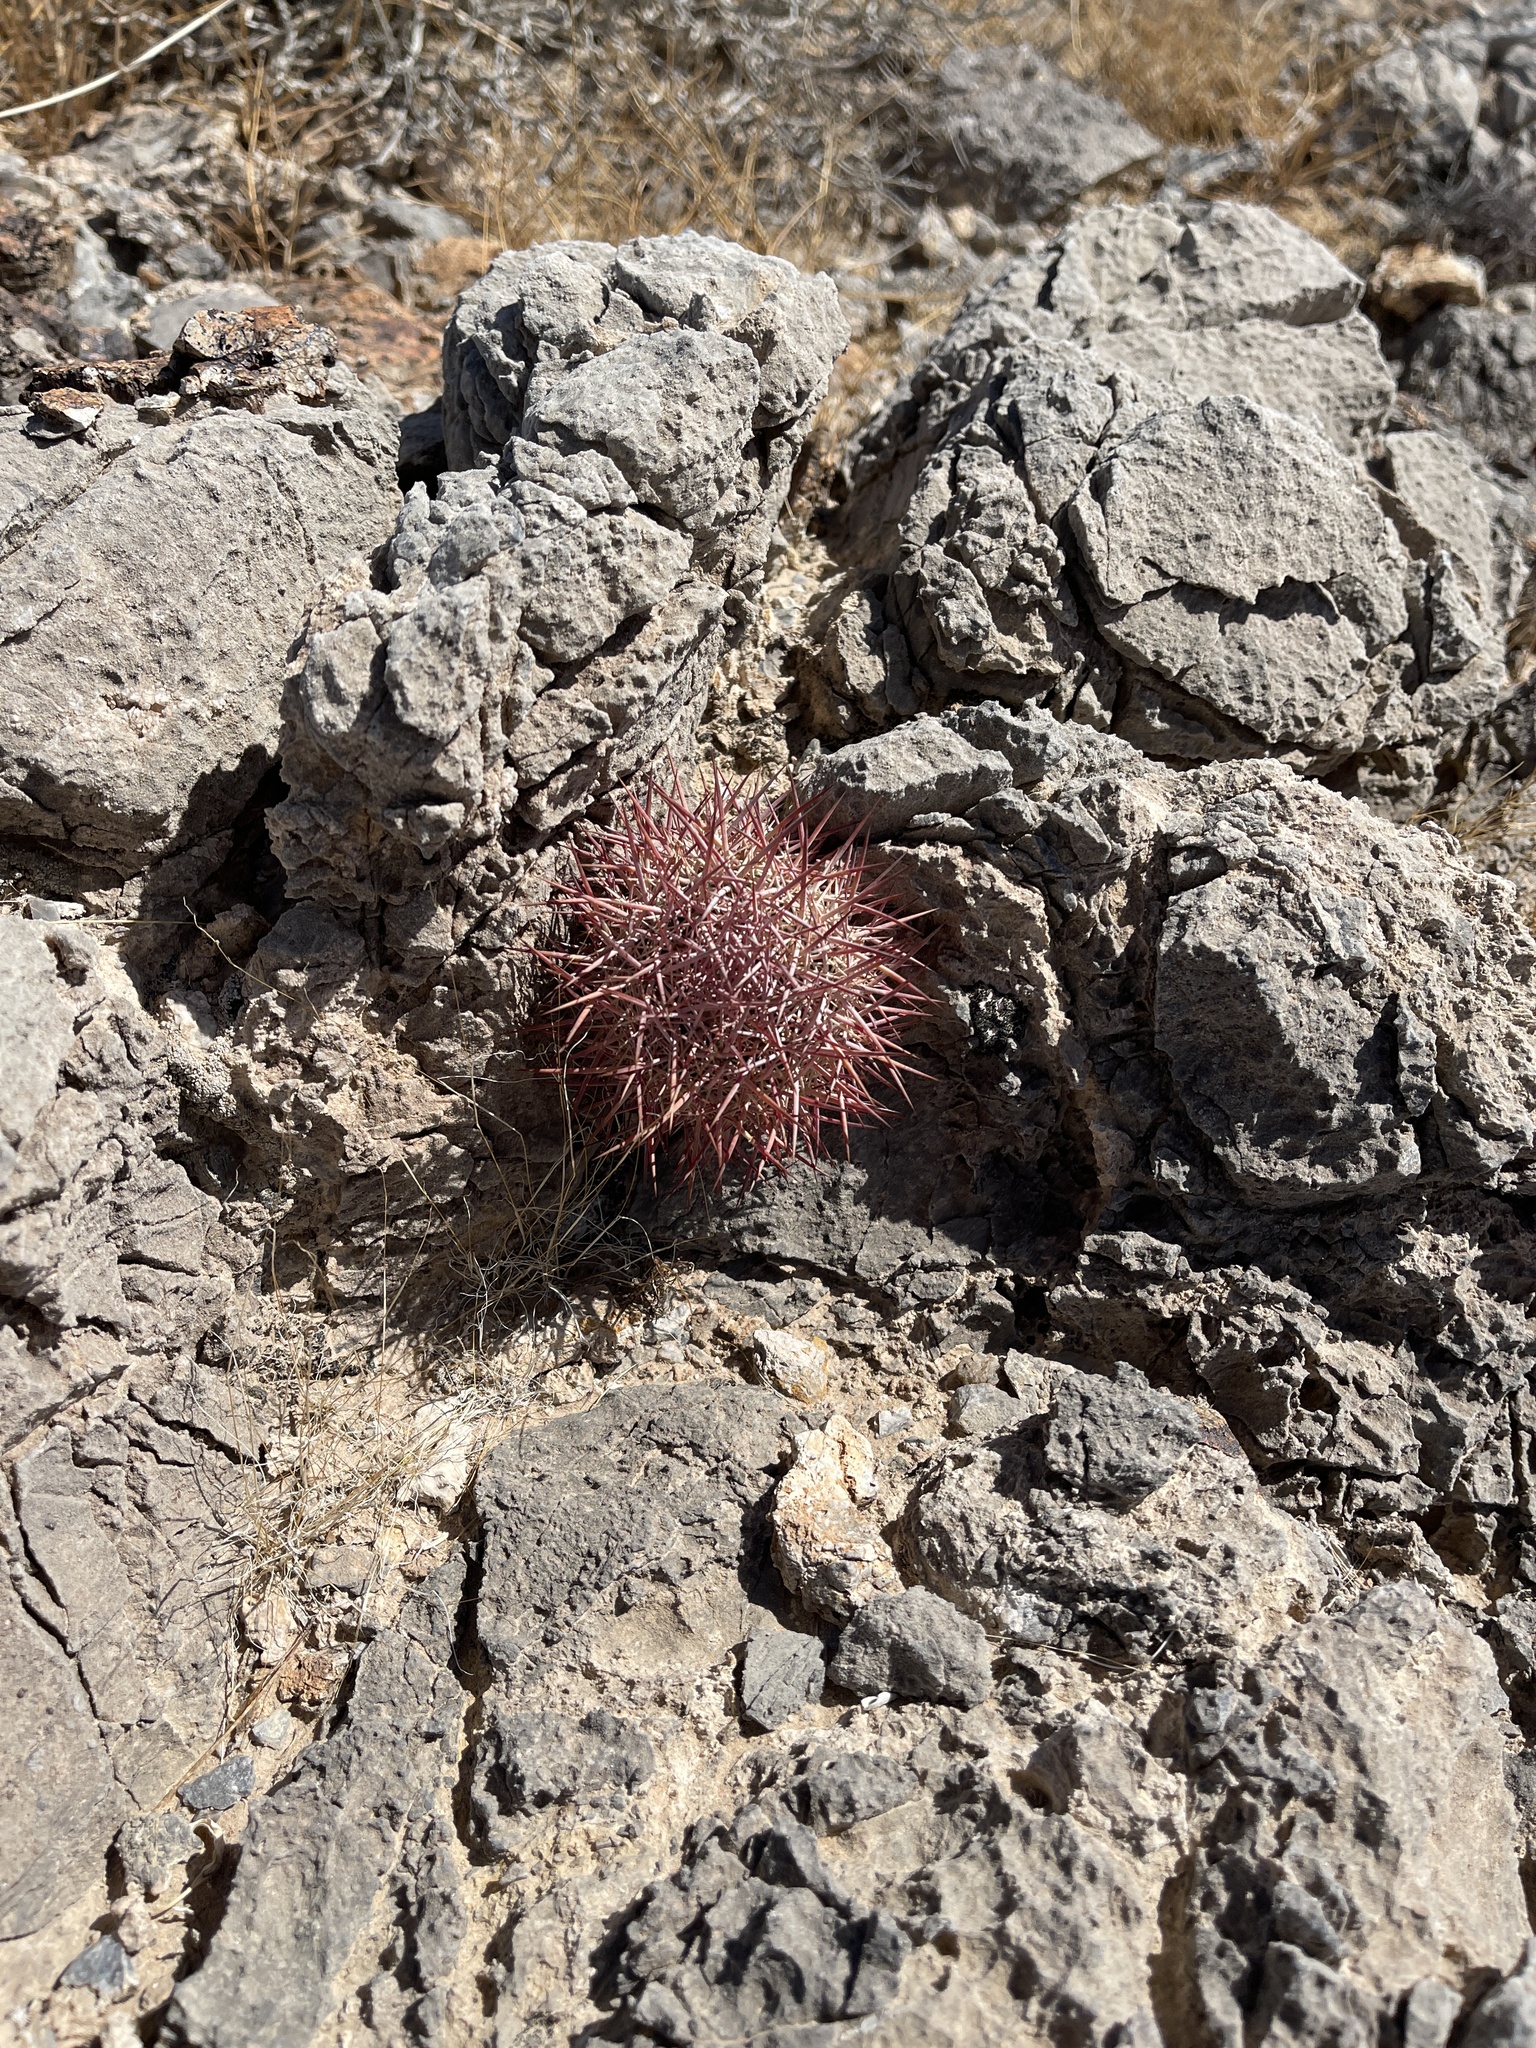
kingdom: Plantae
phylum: Tracheophyta
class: Magnoliopsida
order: Caryophyllales
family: Cactaceae
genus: Sclerocactus
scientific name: Sclerocactus johnsonii
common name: Eight-spine fishhook cactus
